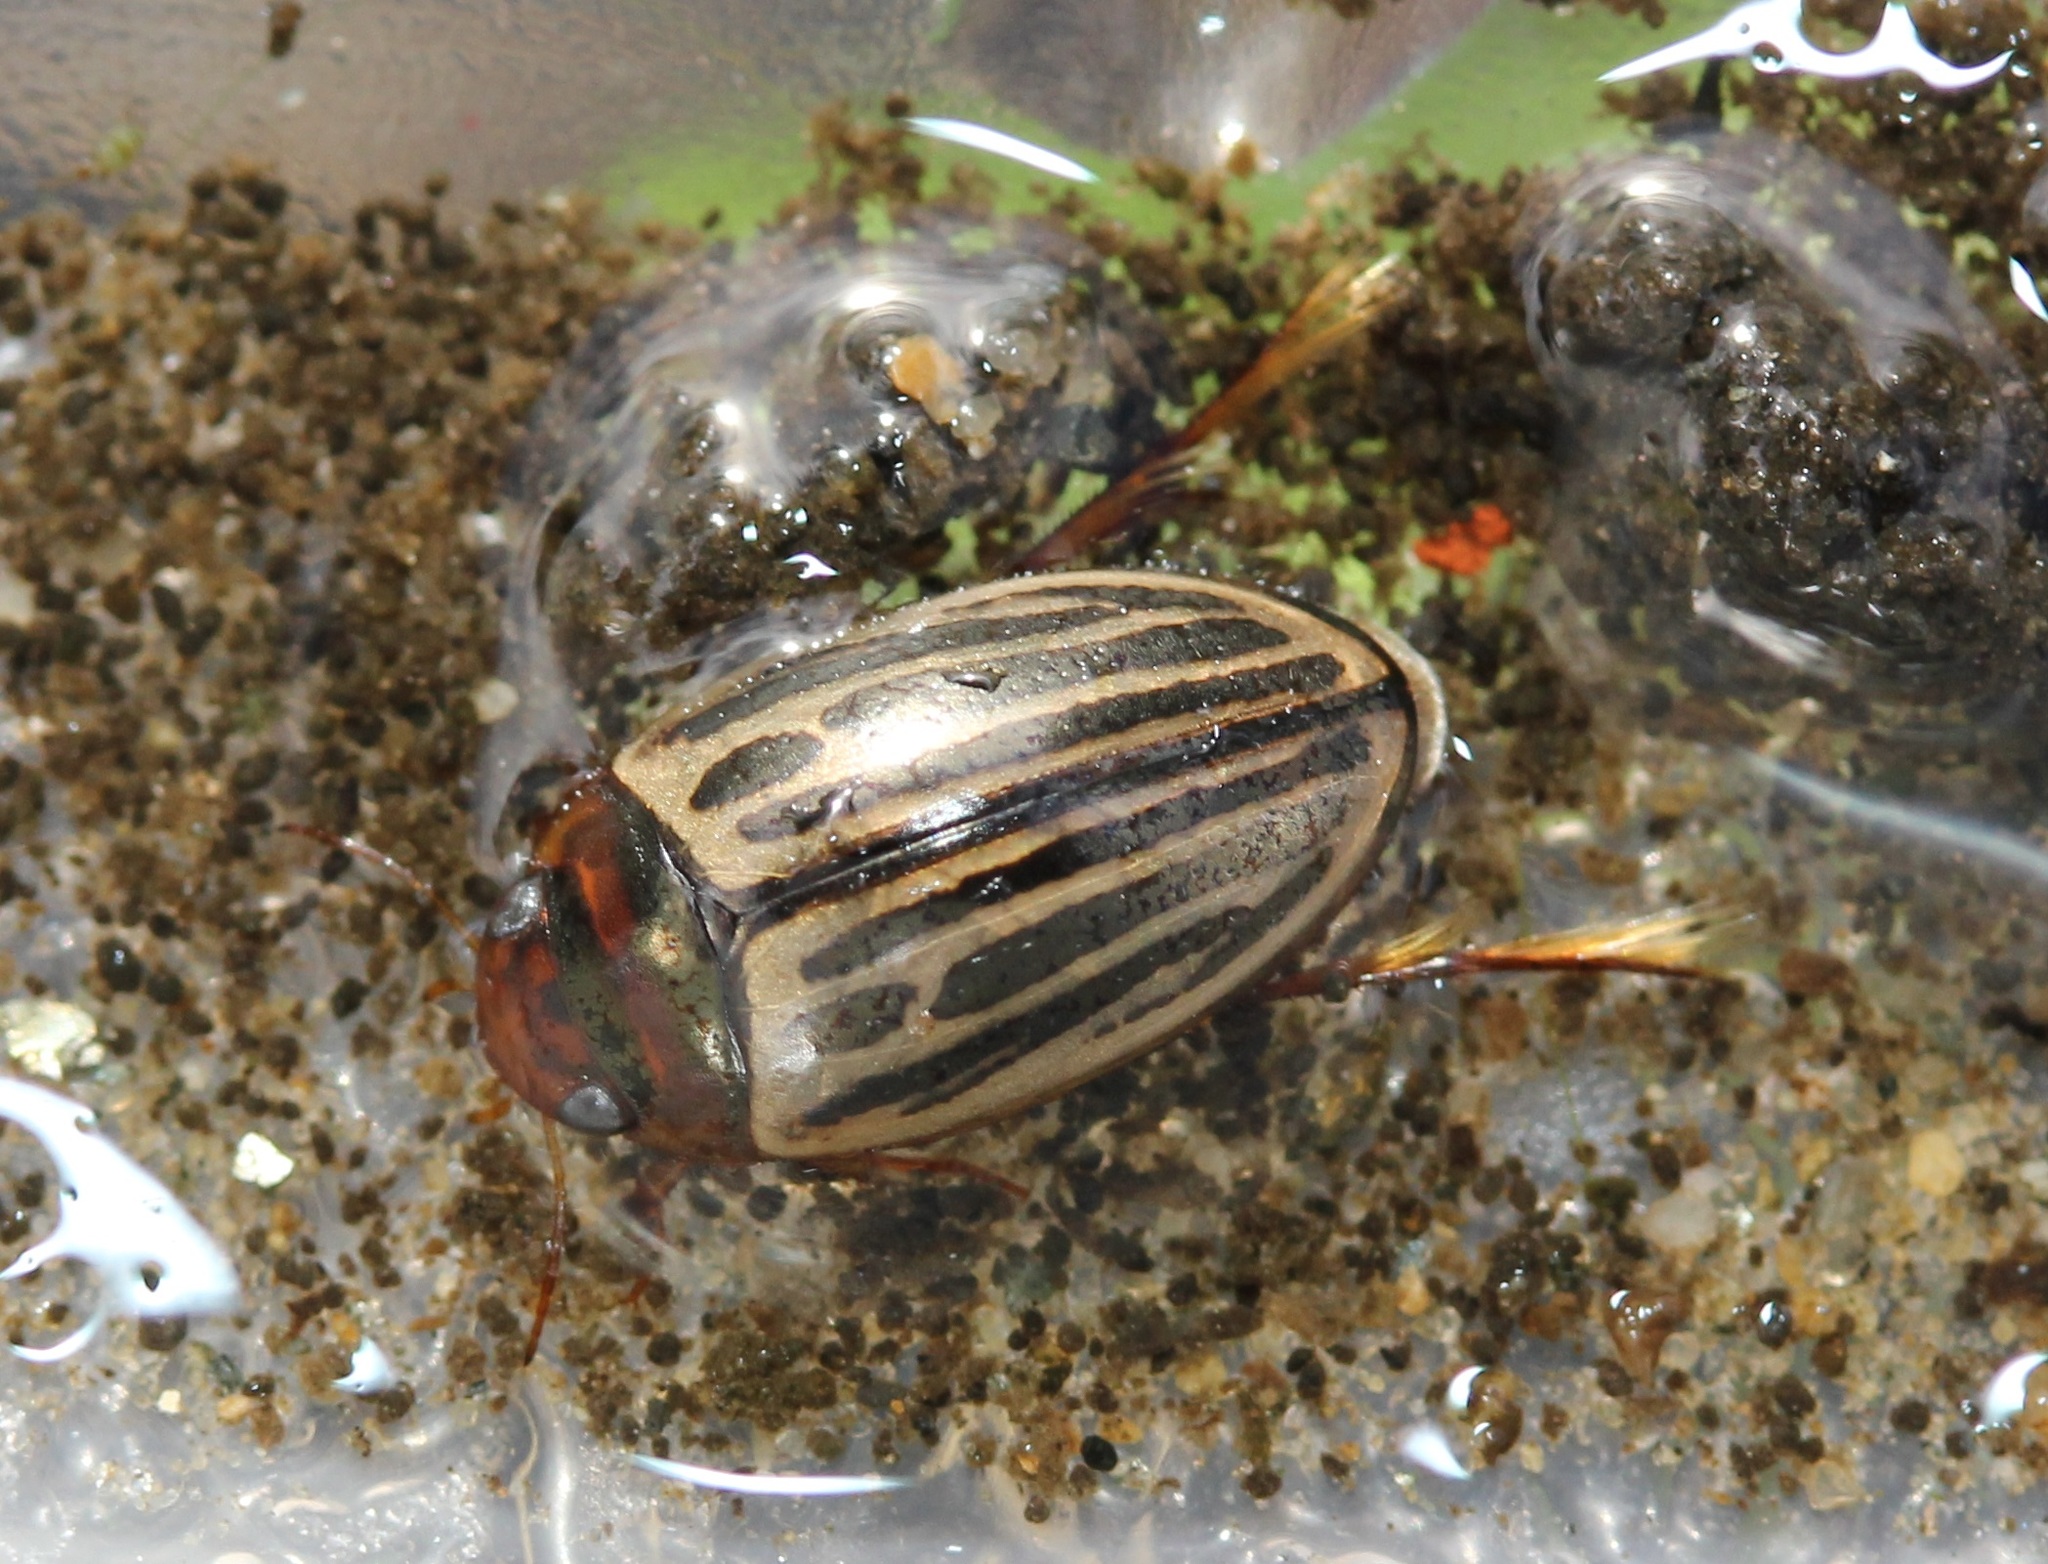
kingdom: Animalia
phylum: Arthropoda
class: Insecta
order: Coleoptera
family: Dytiscidae
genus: Agabus
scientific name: Agabus disintegratus
